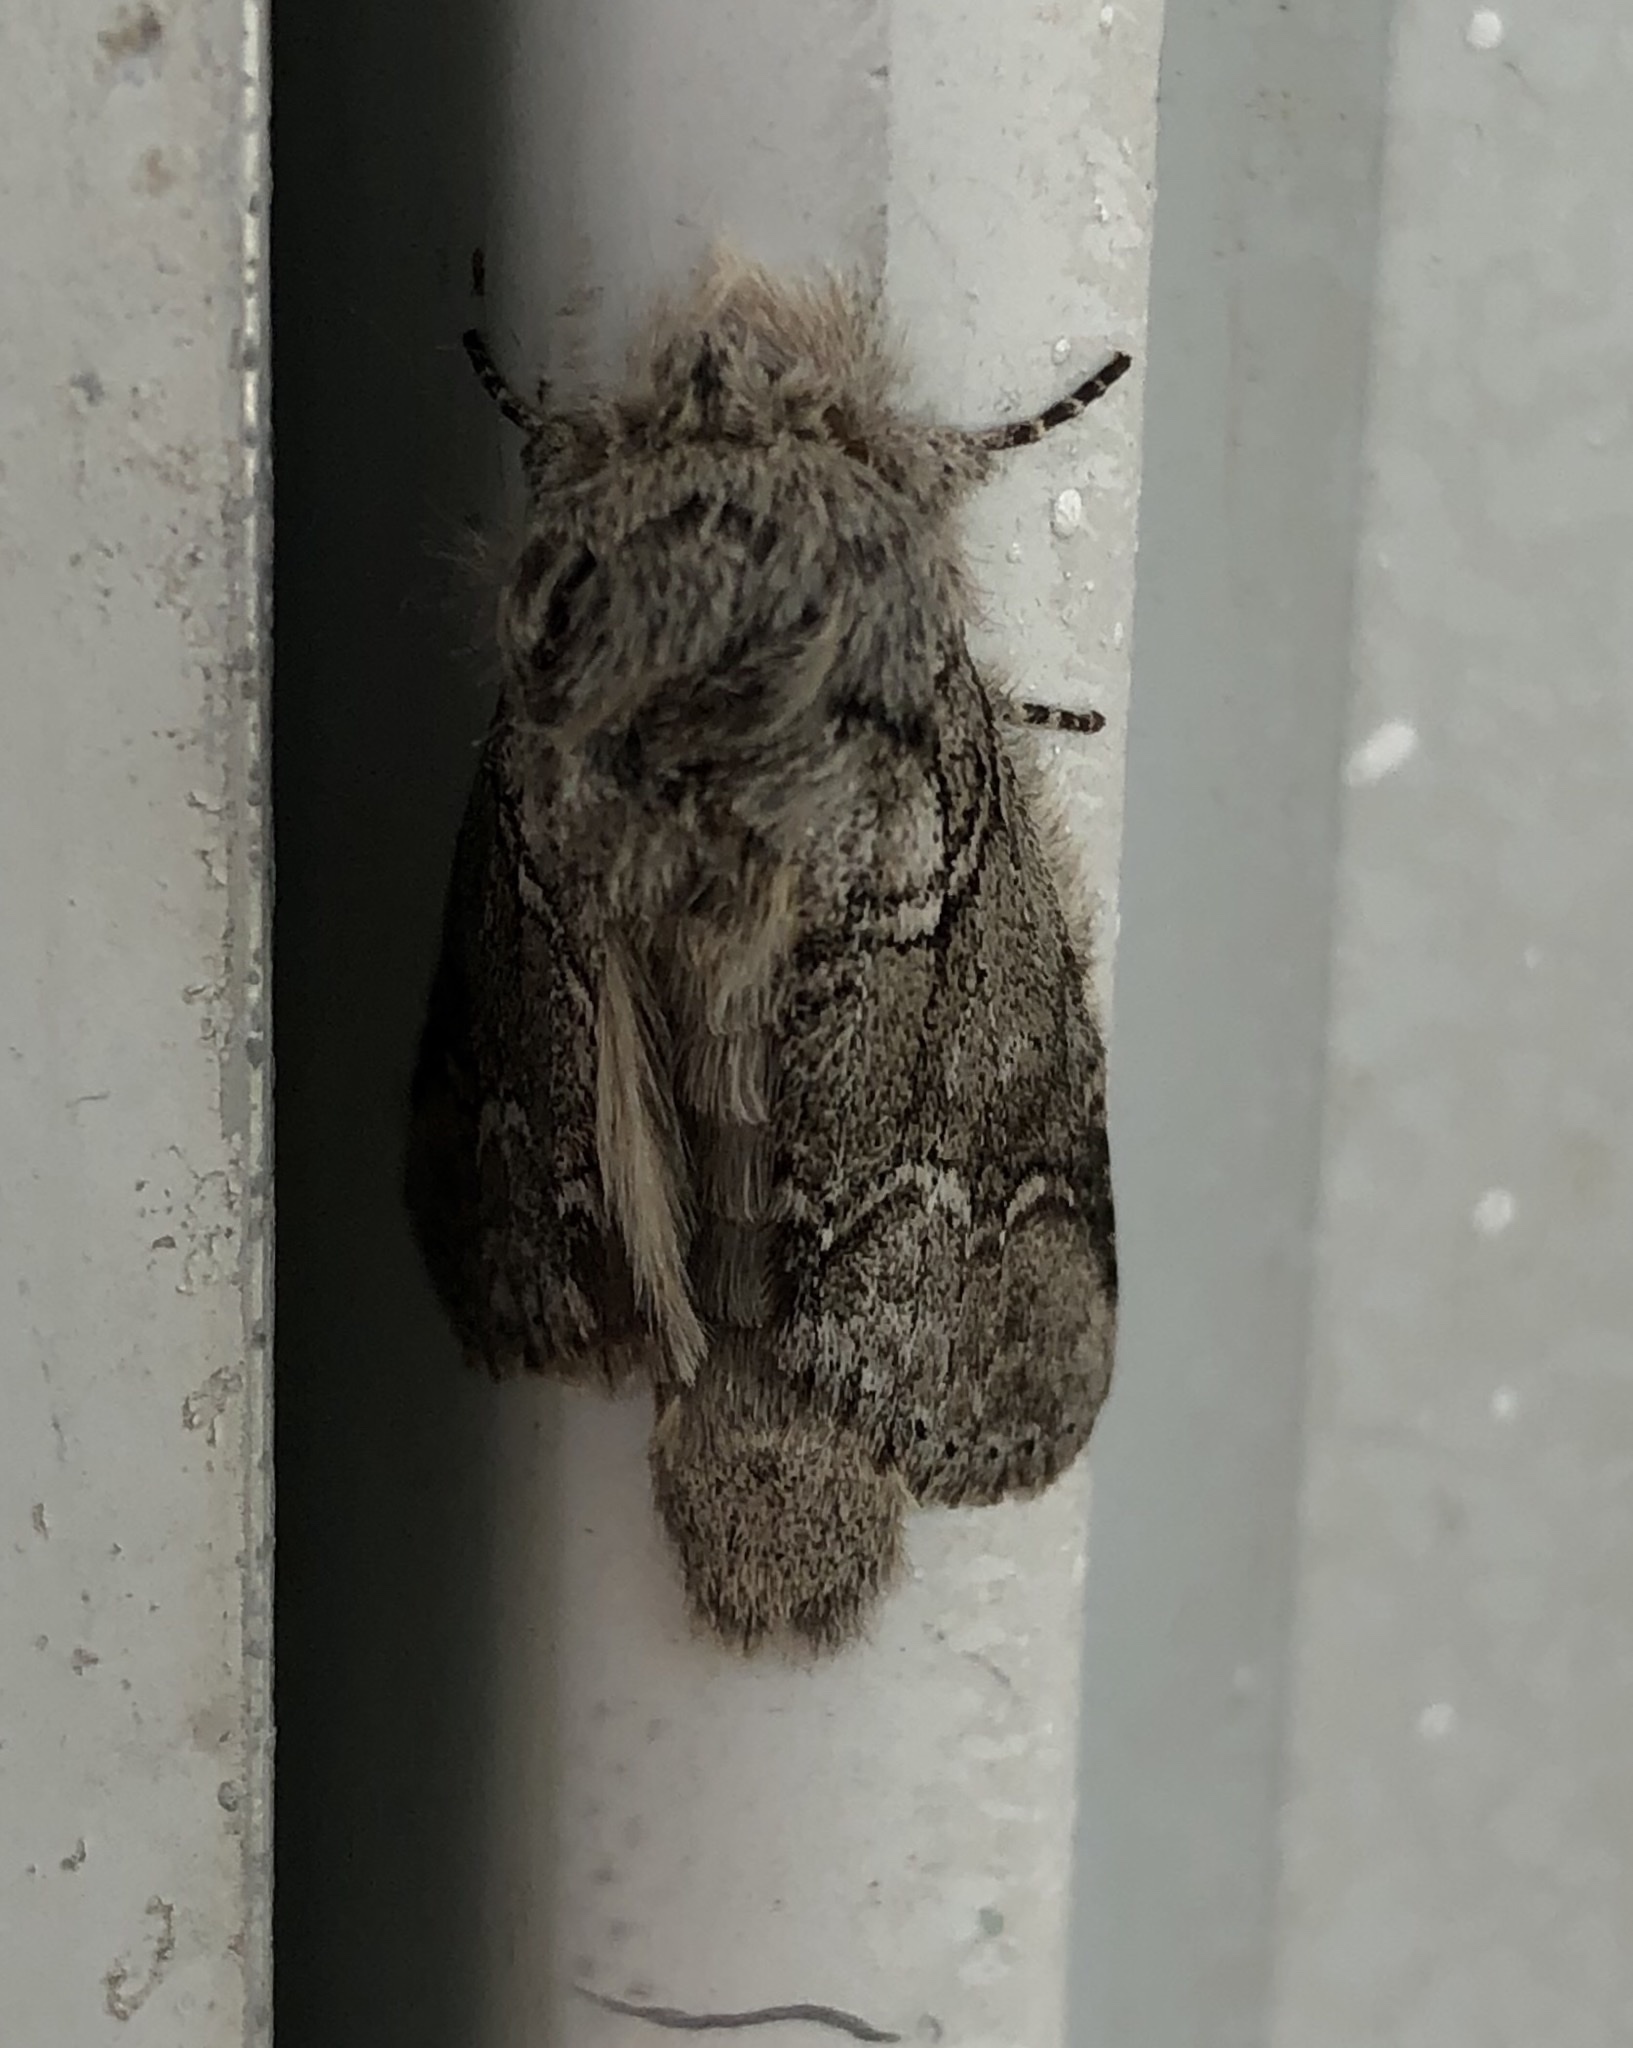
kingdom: Animalia
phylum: Arthropoda
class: Insecta
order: Lepidoptera
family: Notodontidae
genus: Lochmaeus
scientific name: Lochmaeus bilineata
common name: Double-lined prominent
